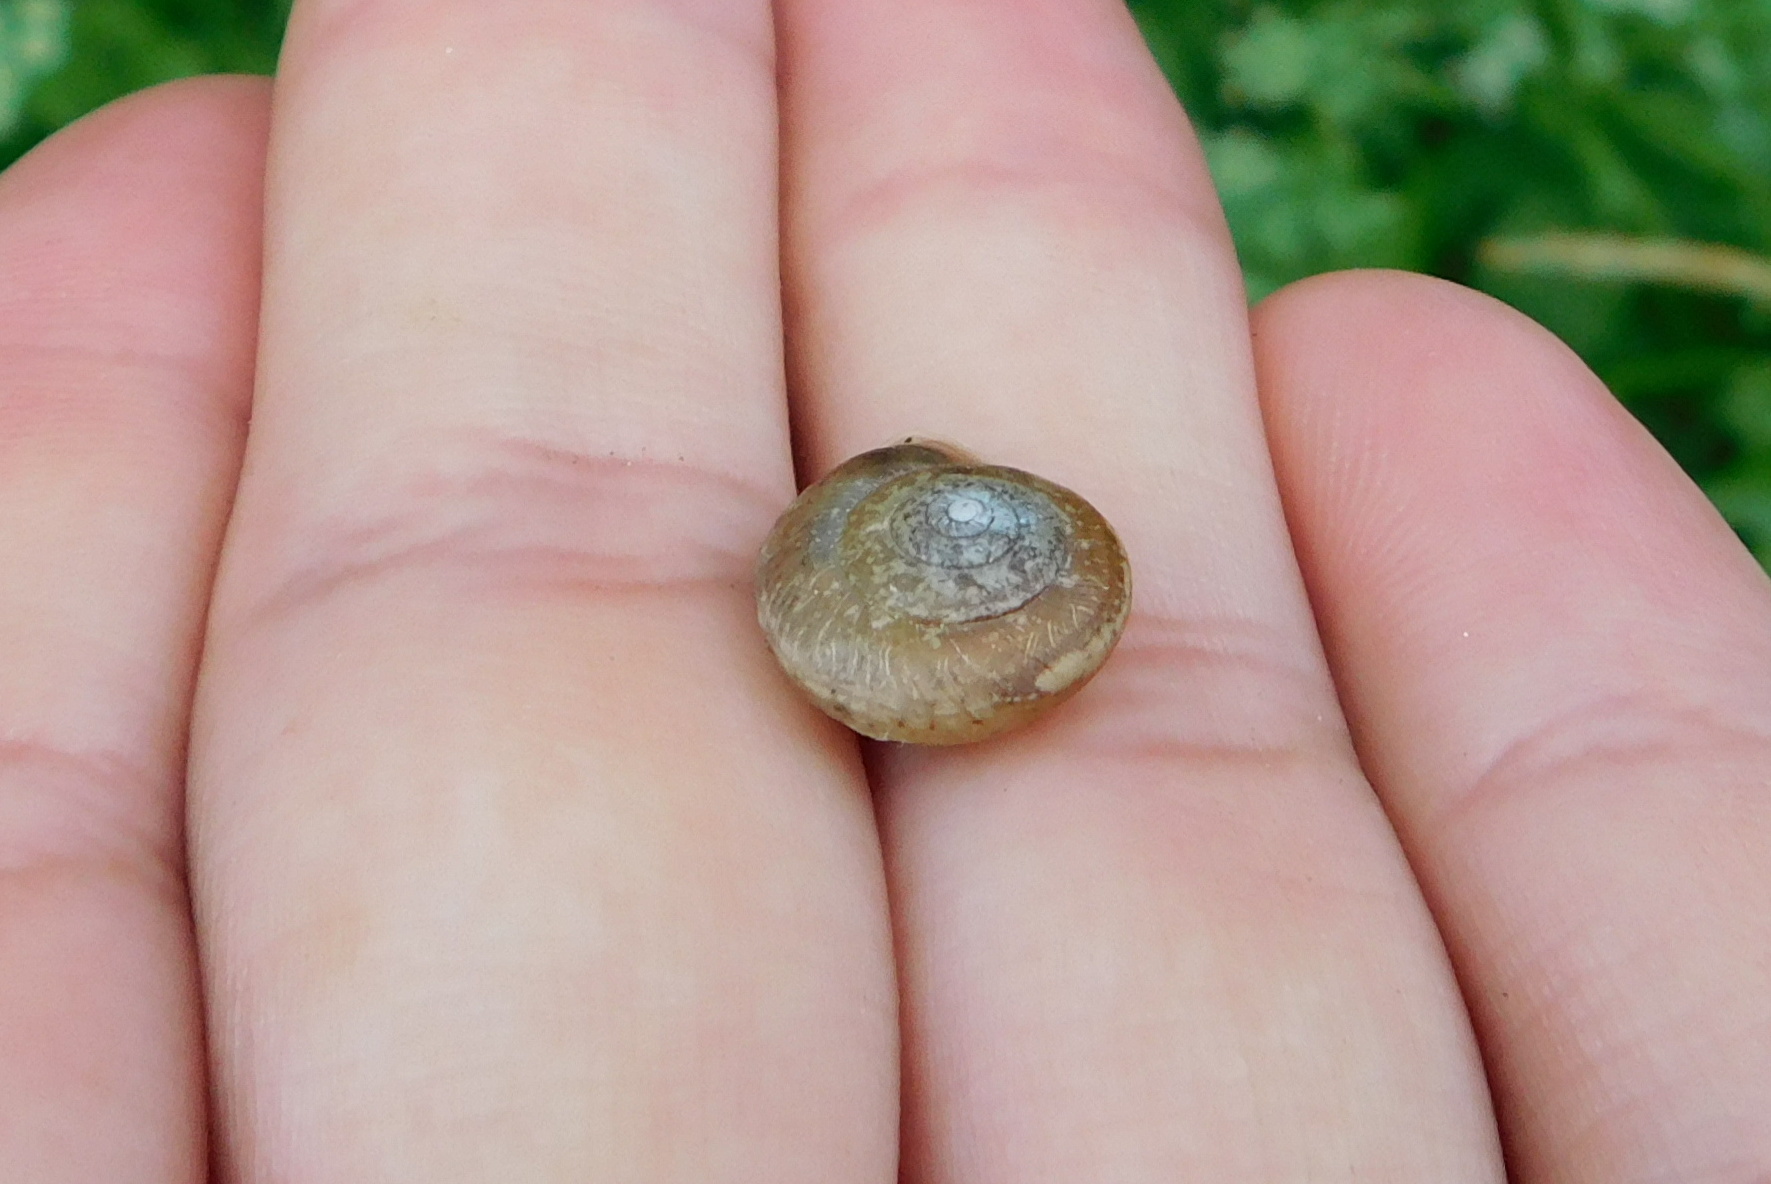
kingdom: Animalia
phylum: Mollusca
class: Gastropoda
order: Stylommatophora
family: Hygromiidae
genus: Urticicola
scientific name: Urticicola umbrosus
